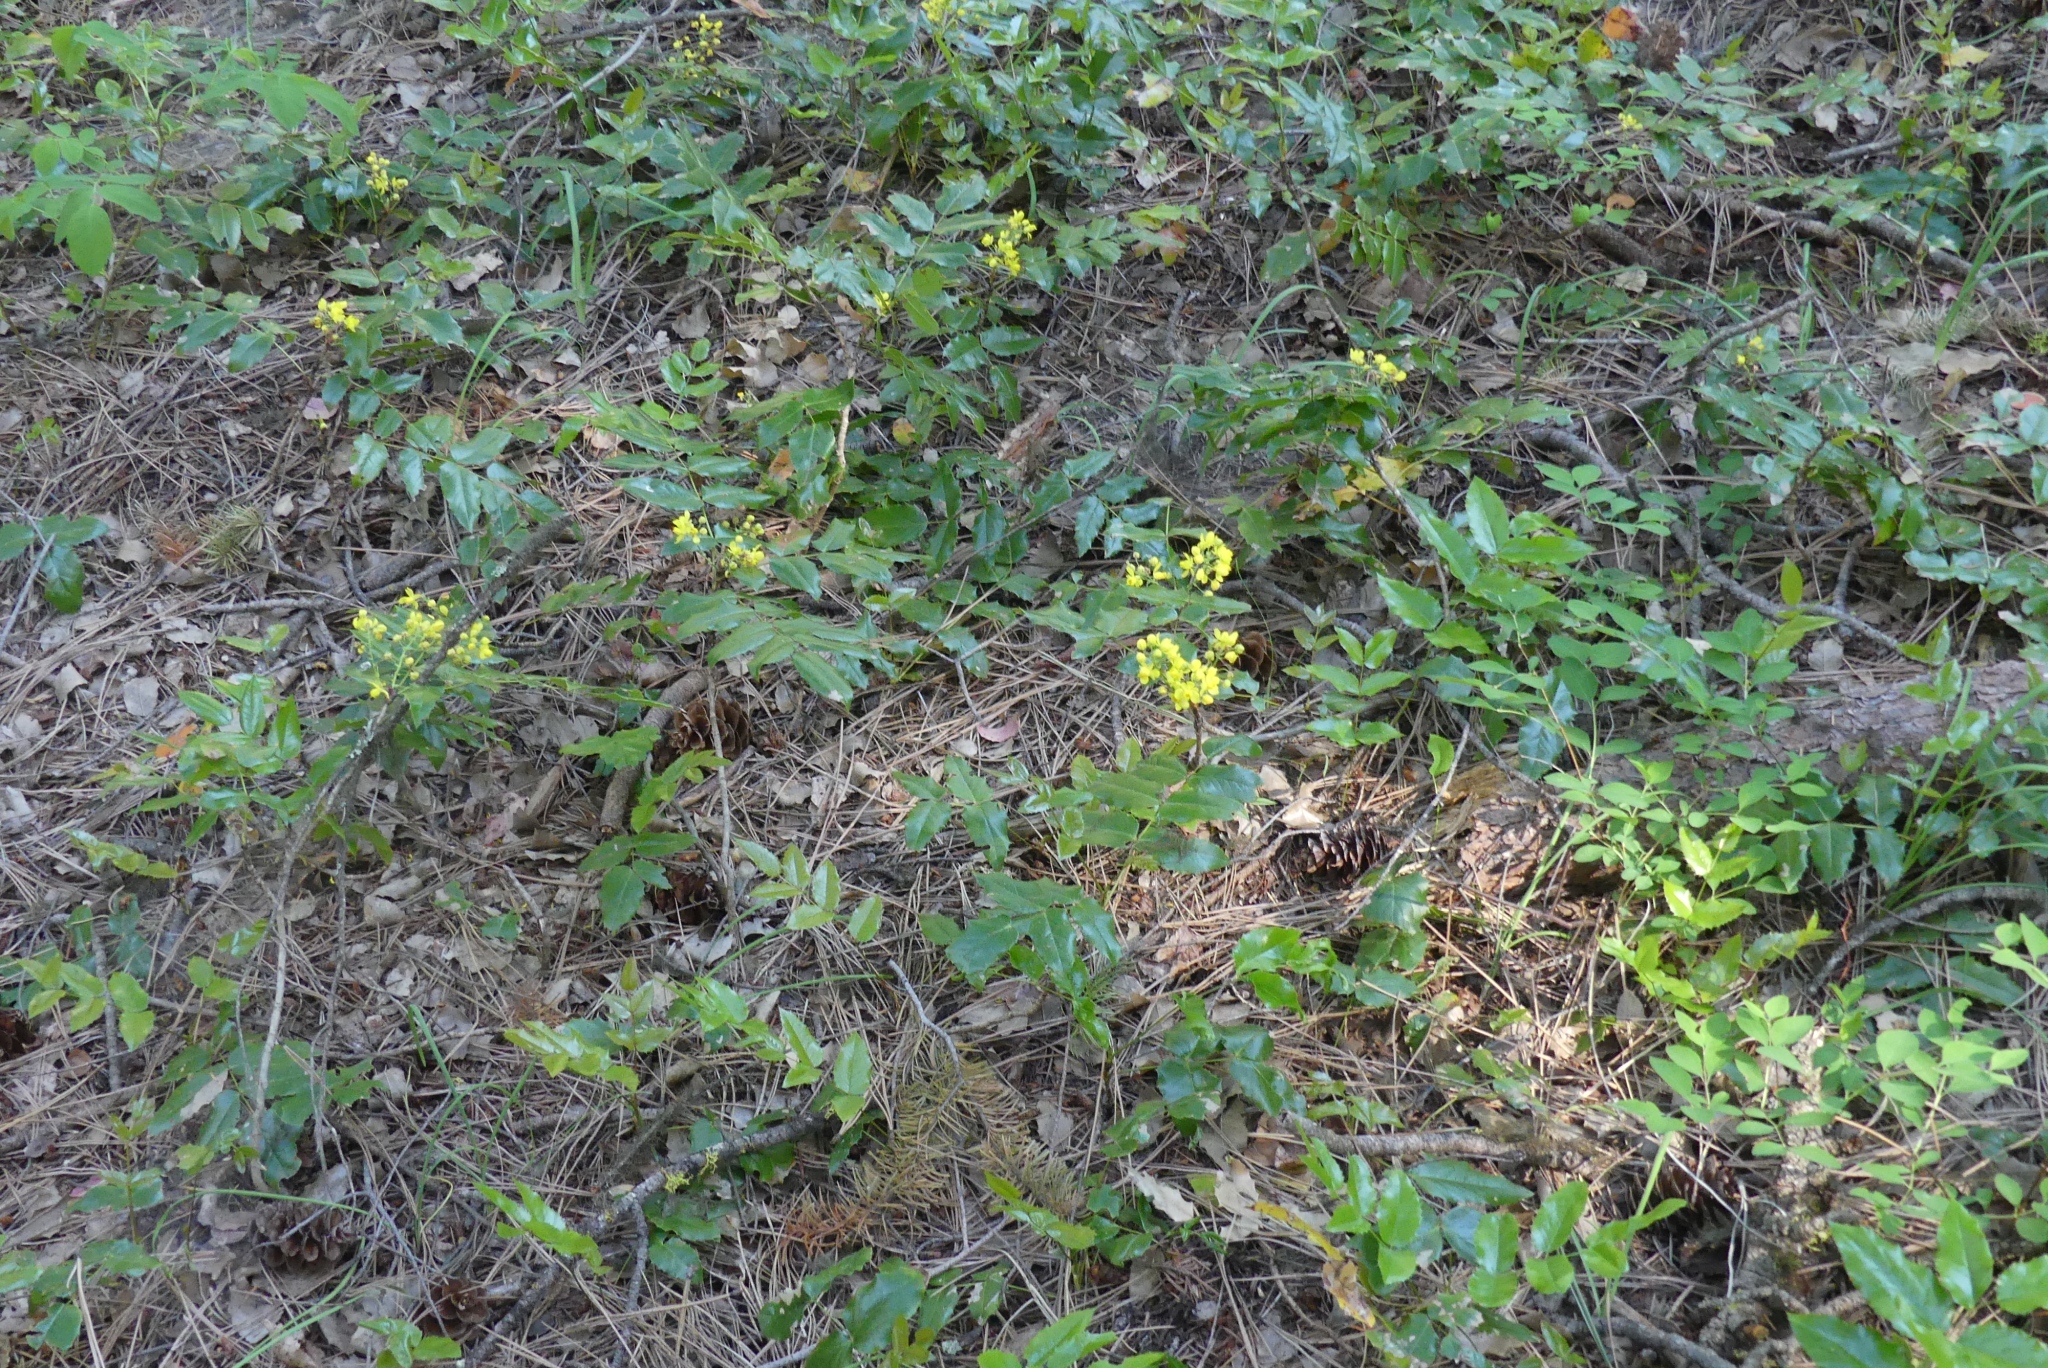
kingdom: Plantae
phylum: Tracheophyta
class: Magnoliopsida
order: Ranunculales
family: Berberidaceae
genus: Mahonia
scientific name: Mahonia aquifolium
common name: Oregon-grape
